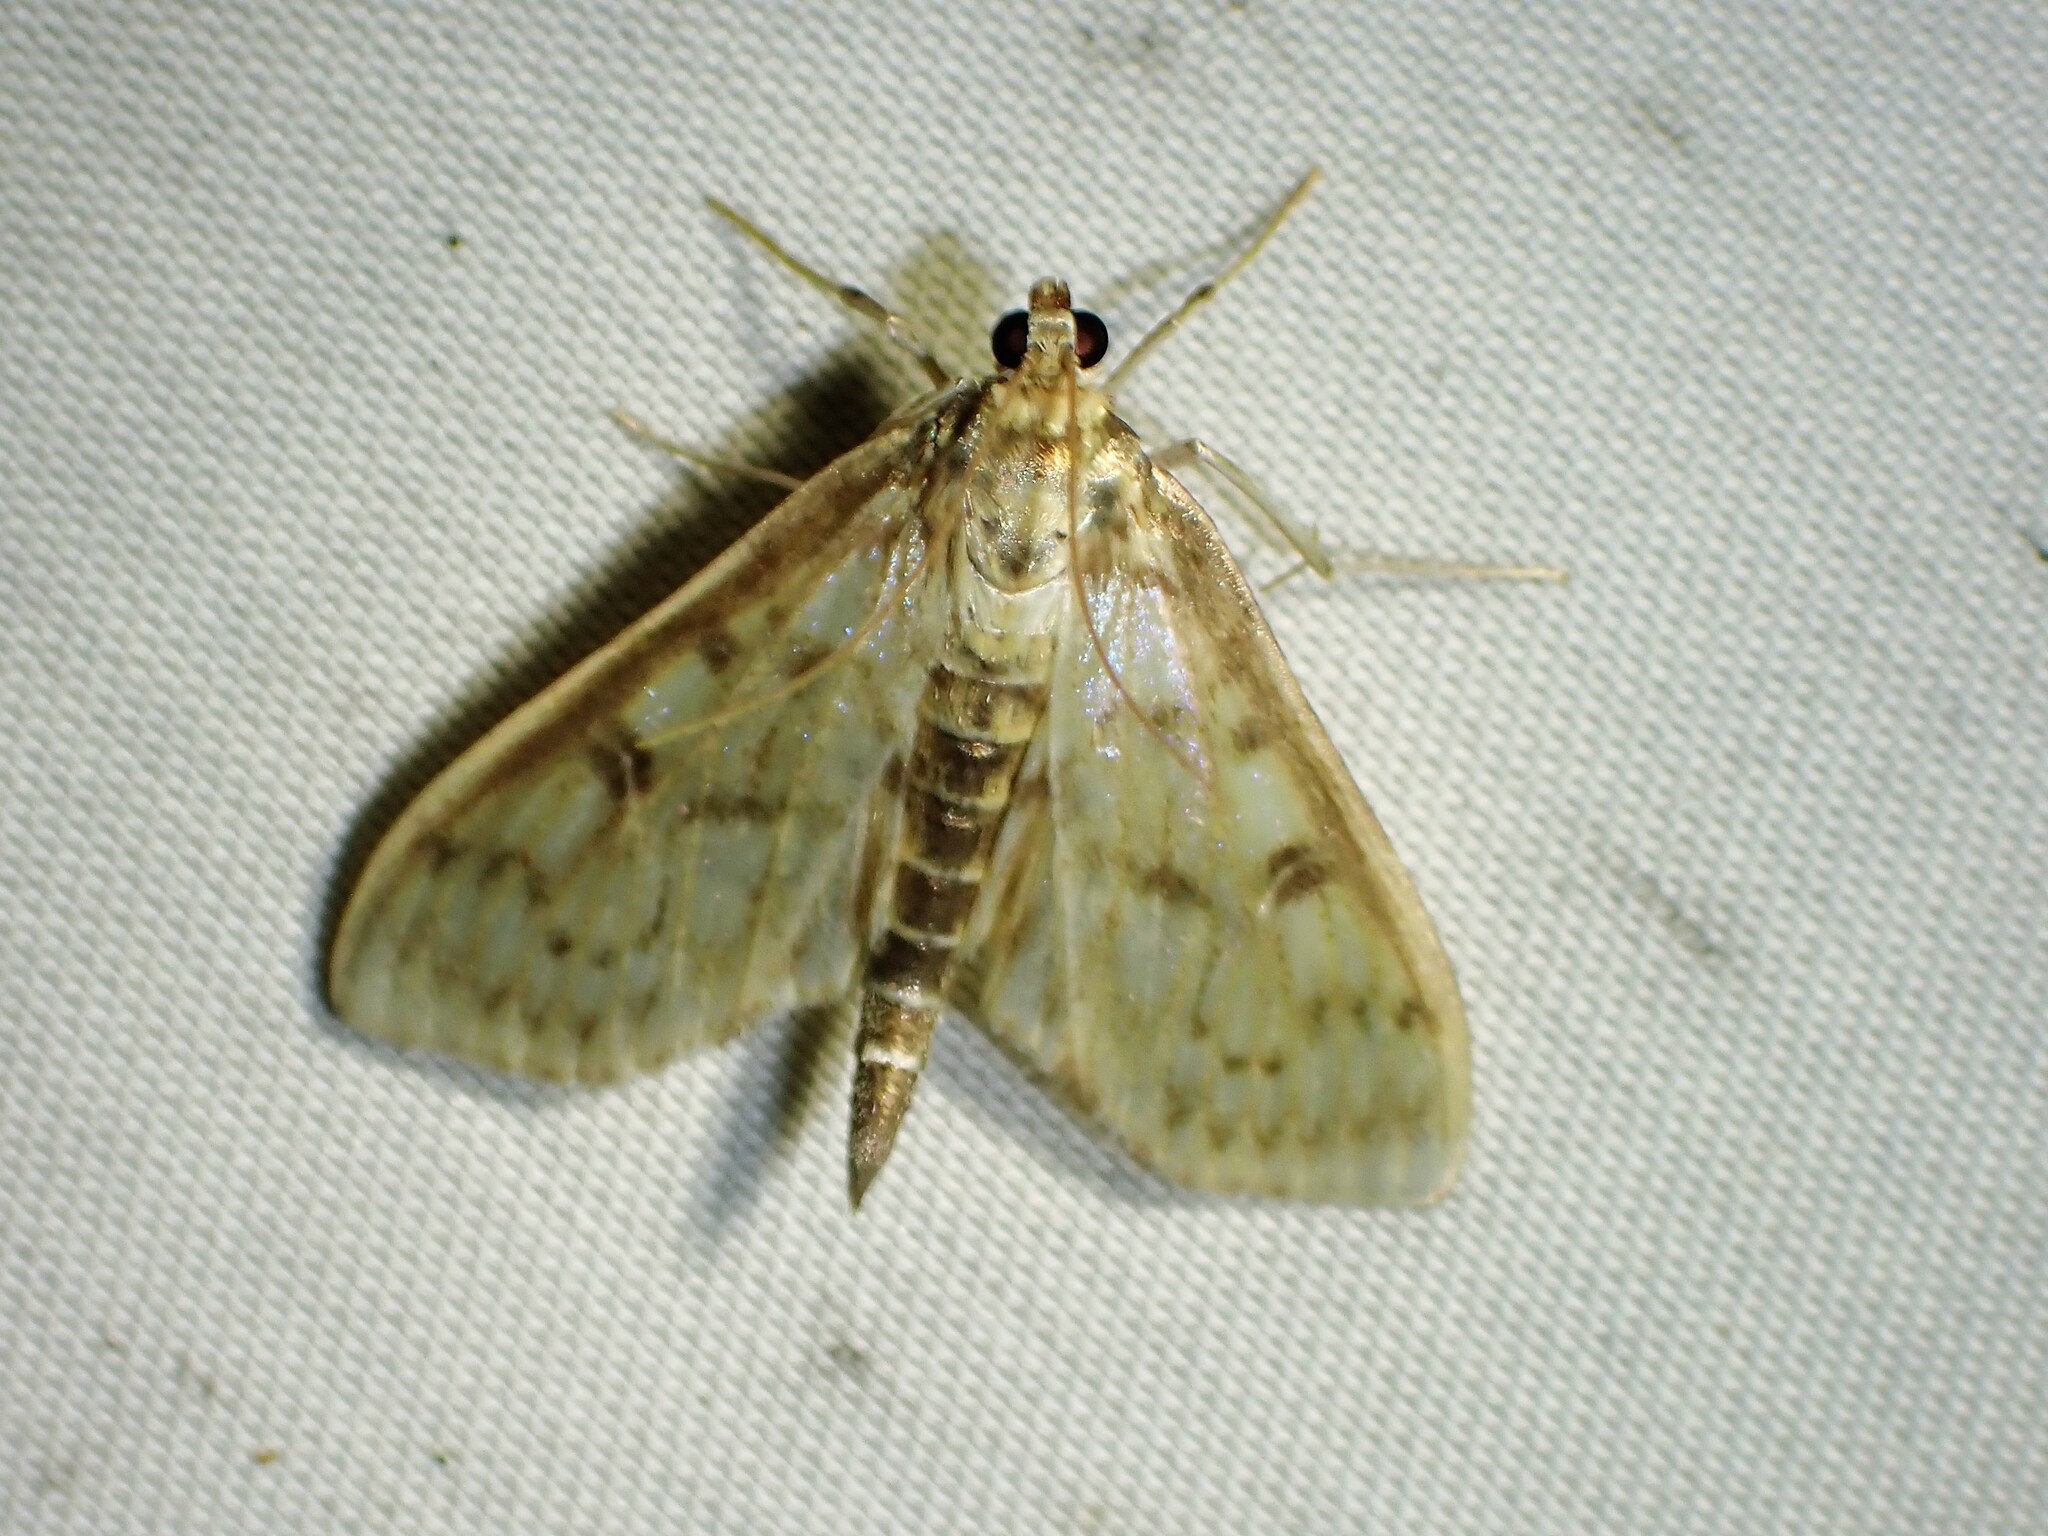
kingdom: Animalia
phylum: Arthropoda
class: Insecta
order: Lepidoptera
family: Crambidae
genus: Herpetogramma
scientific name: Herpetogramma aquilonalis
